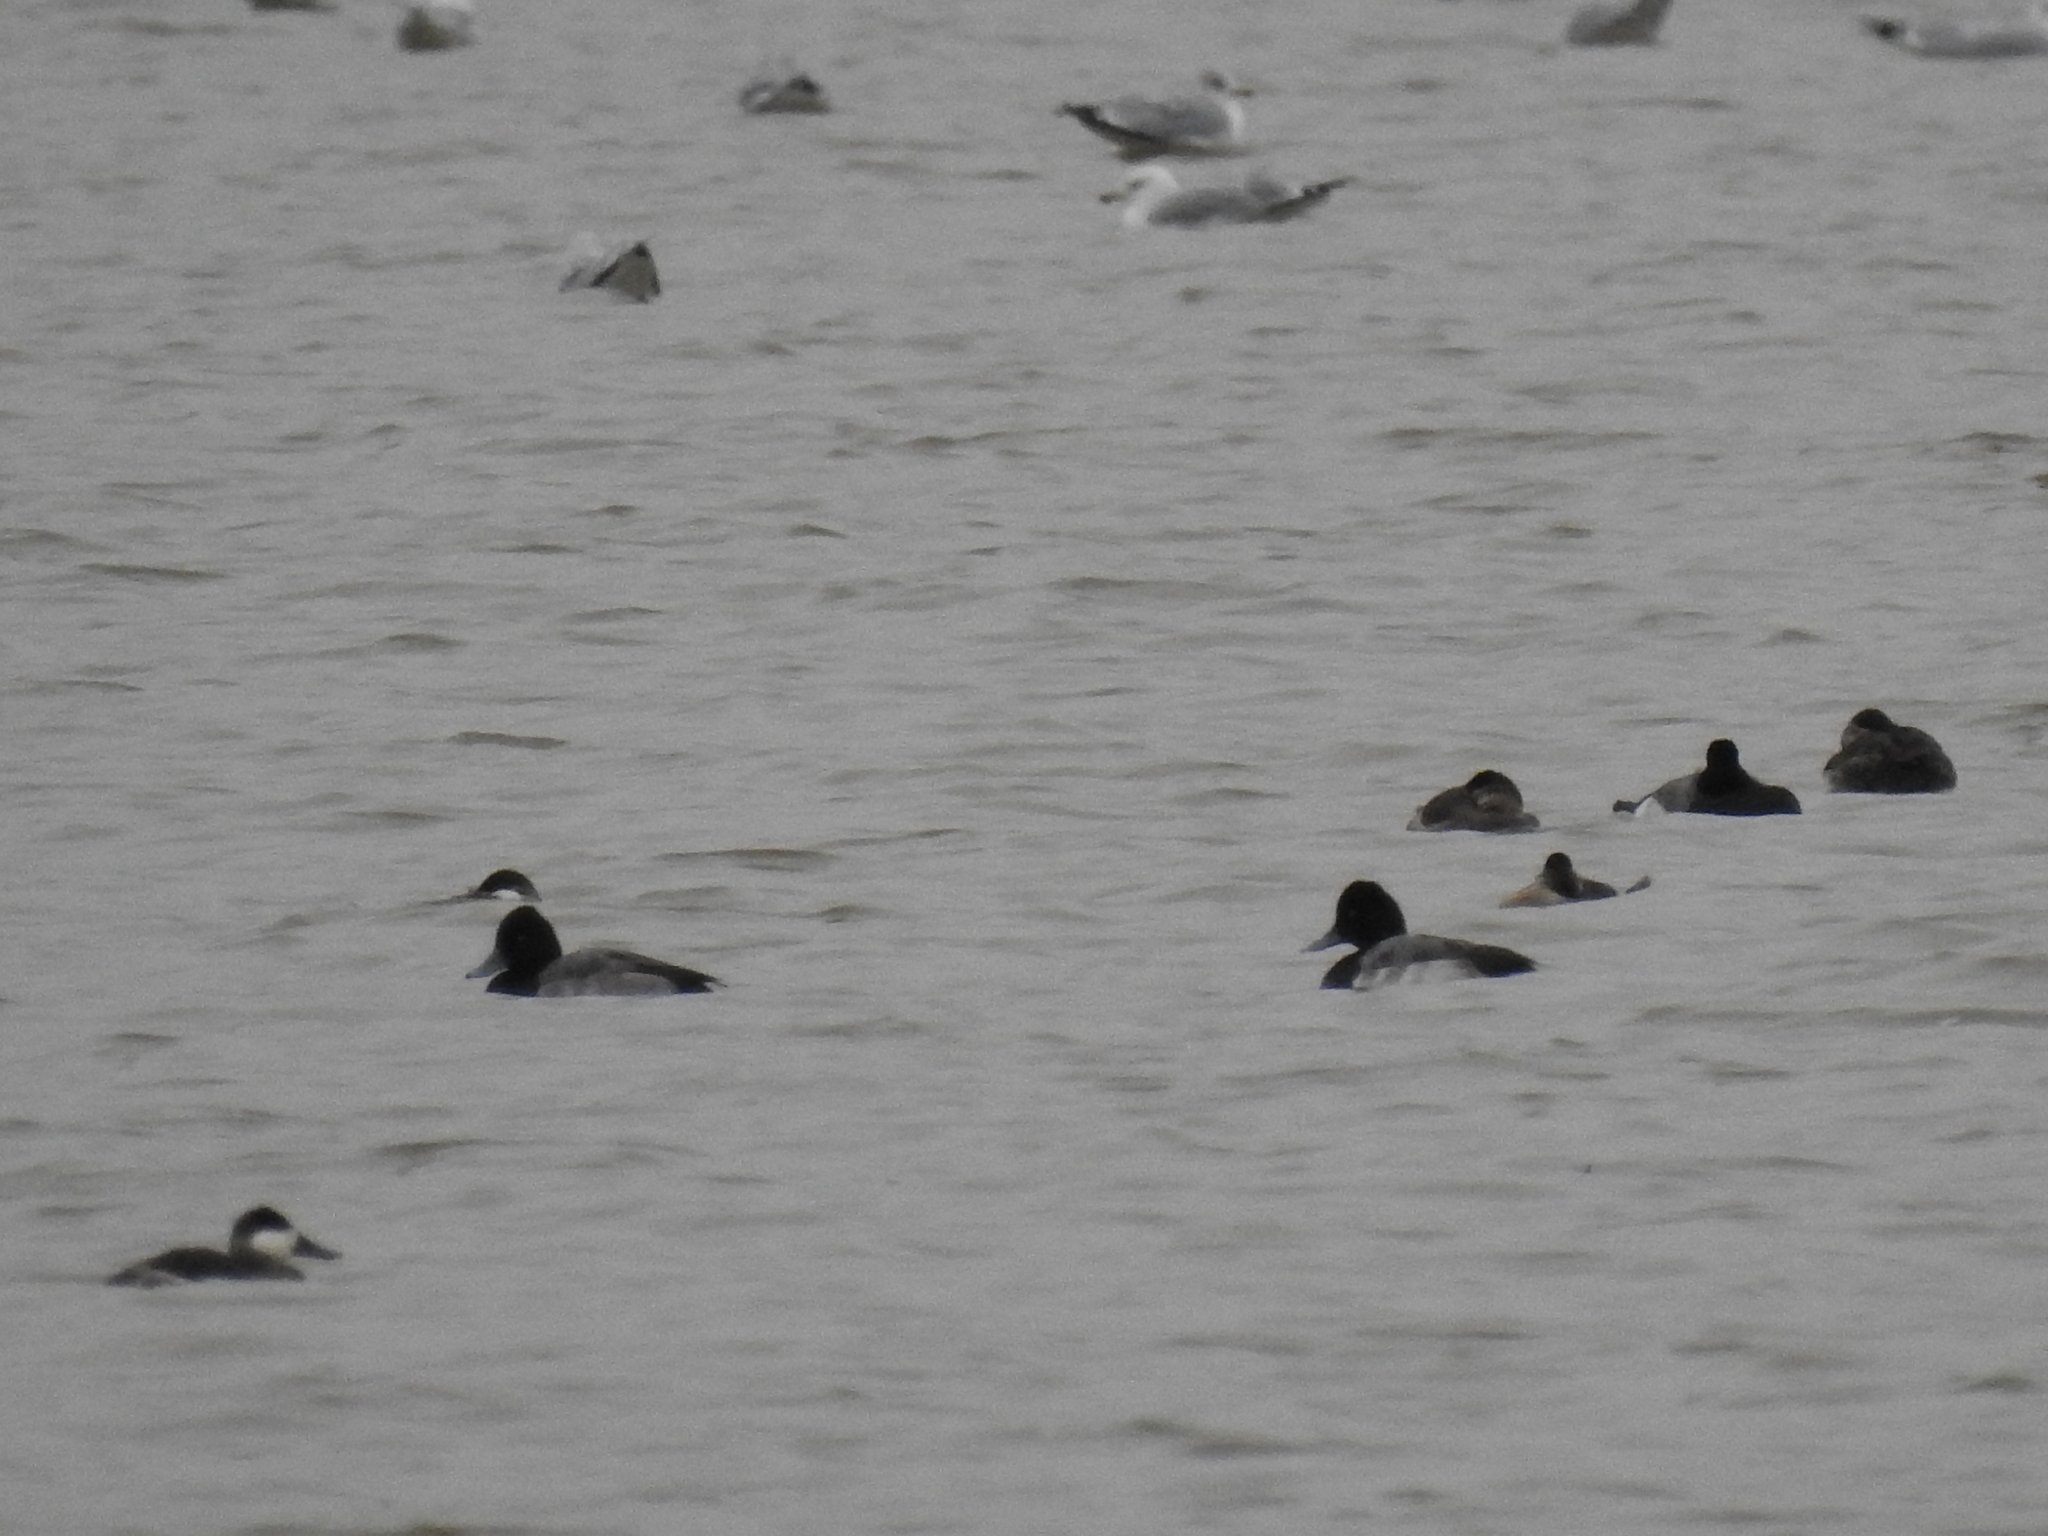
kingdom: Animalia
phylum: Chordata
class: Aves
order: Anseriformes
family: Anatidae
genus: Aythya
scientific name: Aythya affinis
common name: Lesser scaup
